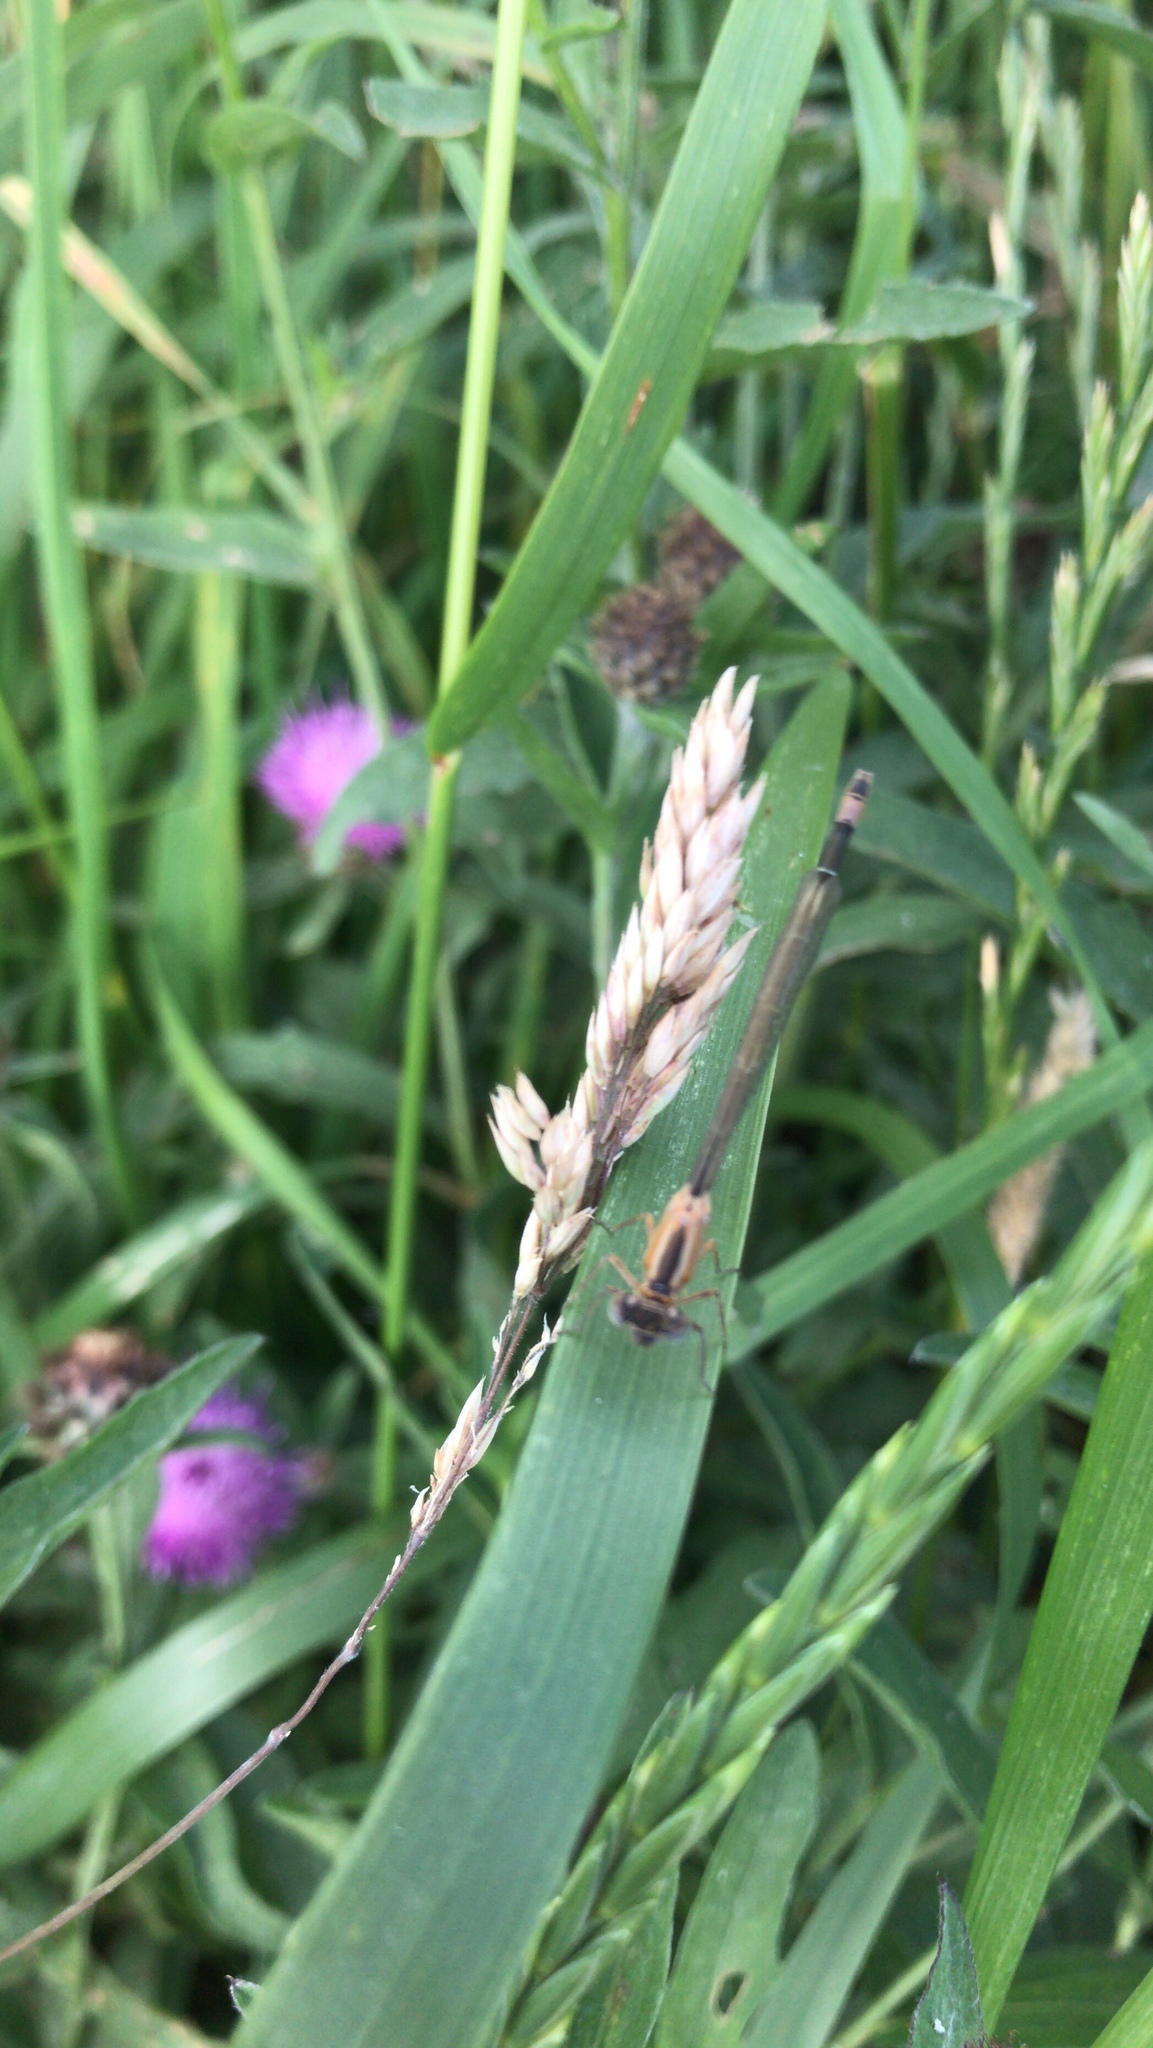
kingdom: Animalia
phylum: Arthropoda
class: Insecta
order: Odonata
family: Coenagrionidae
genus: Ischnura
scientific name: Ischnura elegans
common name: Blue-tailed damselfly
